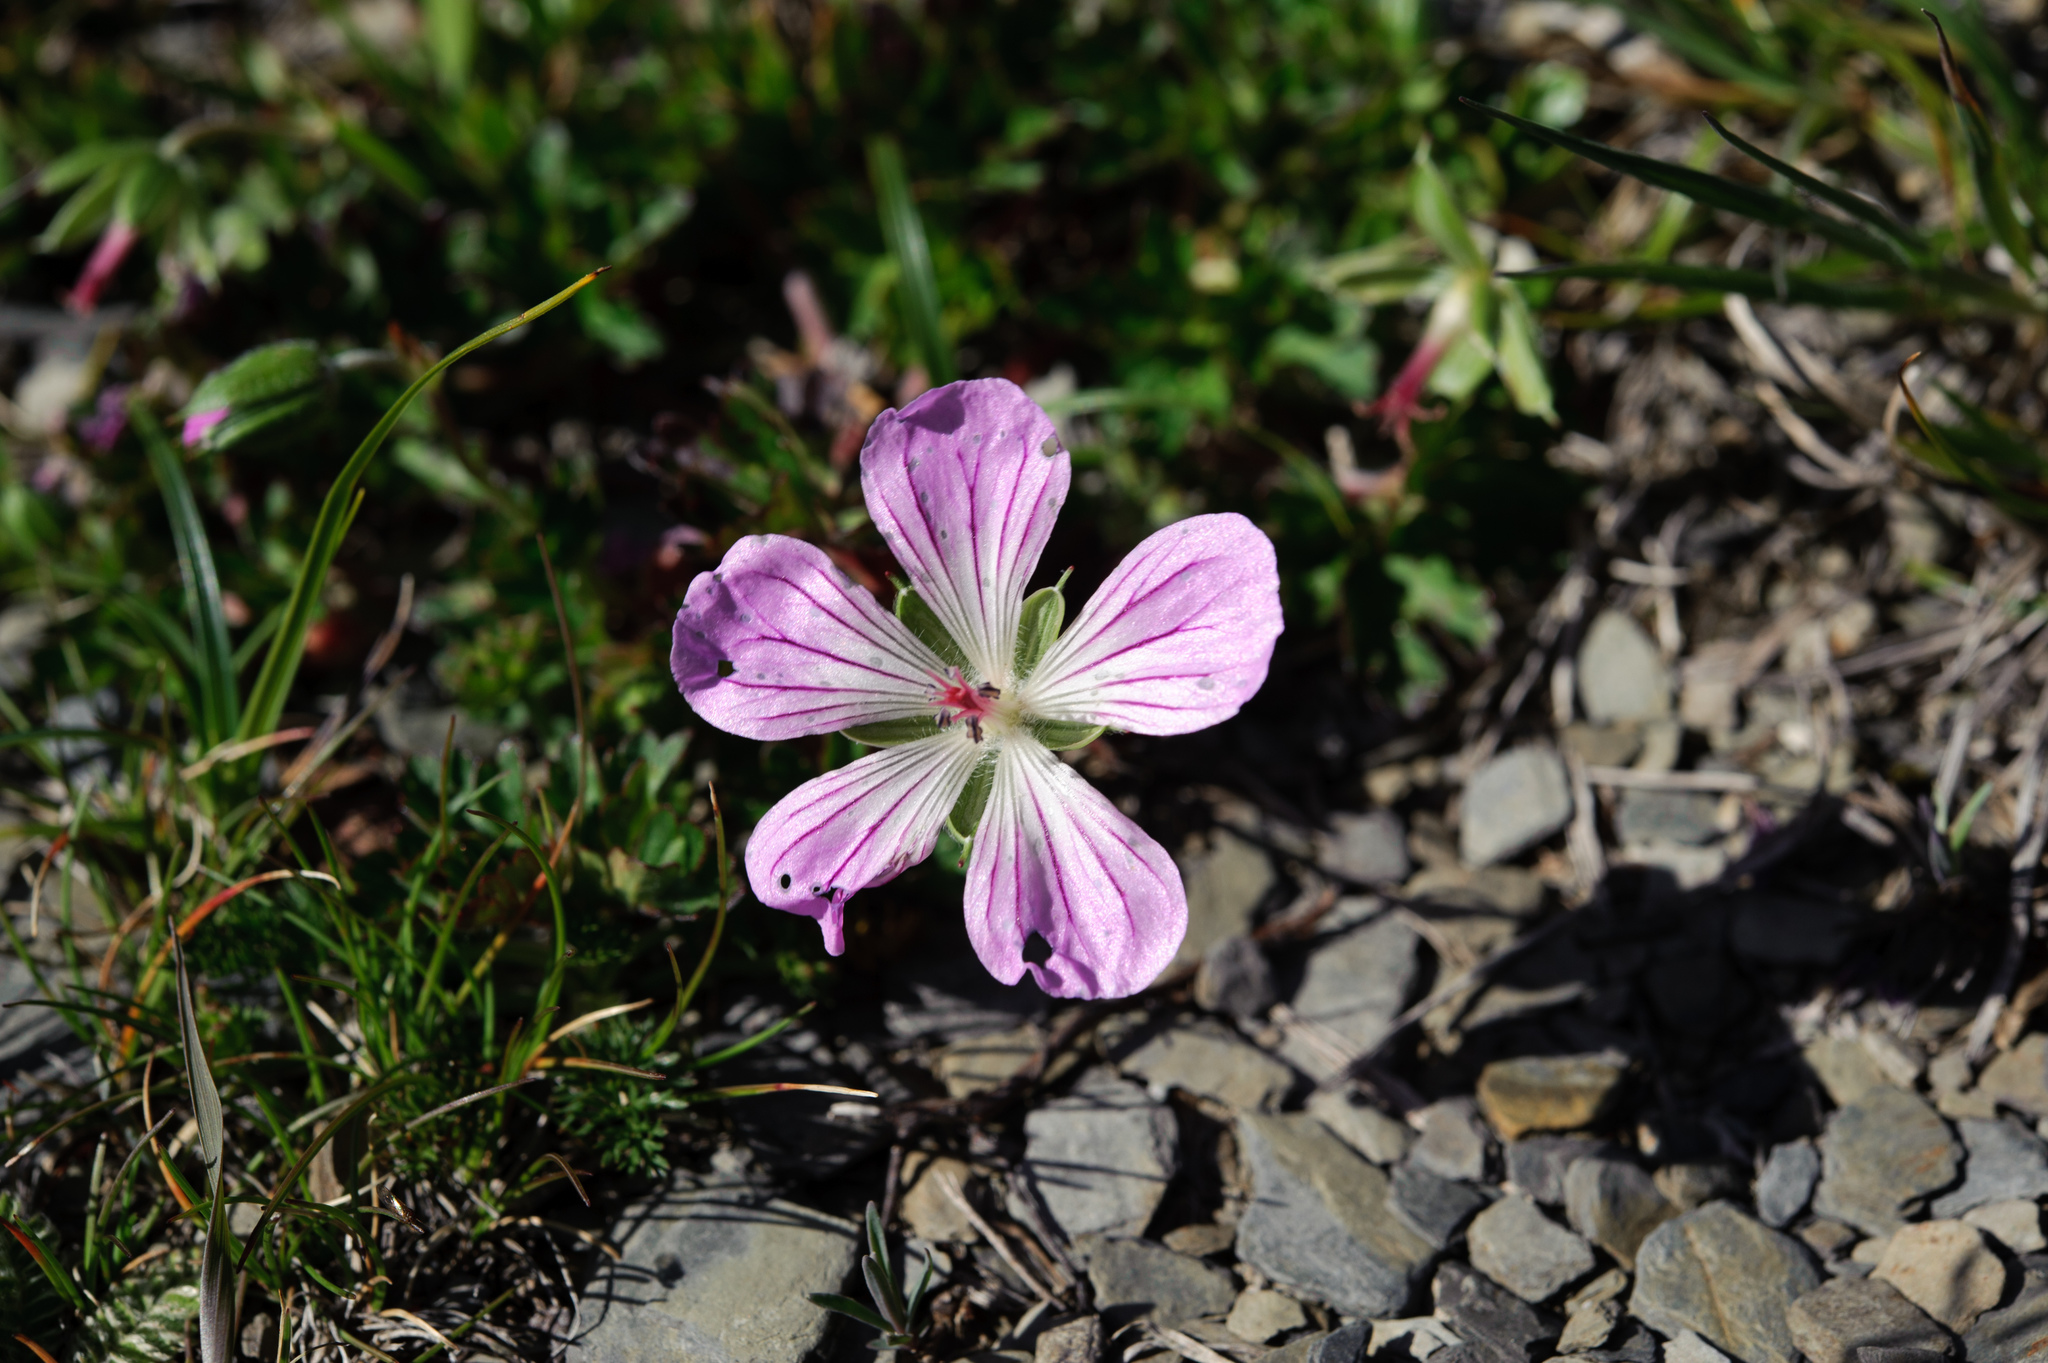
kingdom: Plantae
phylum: Tracheophyta
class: Magnoliopsida
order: Geraniales
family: Geraniaceae
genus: Geranium
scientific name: Geranium hayatanum
